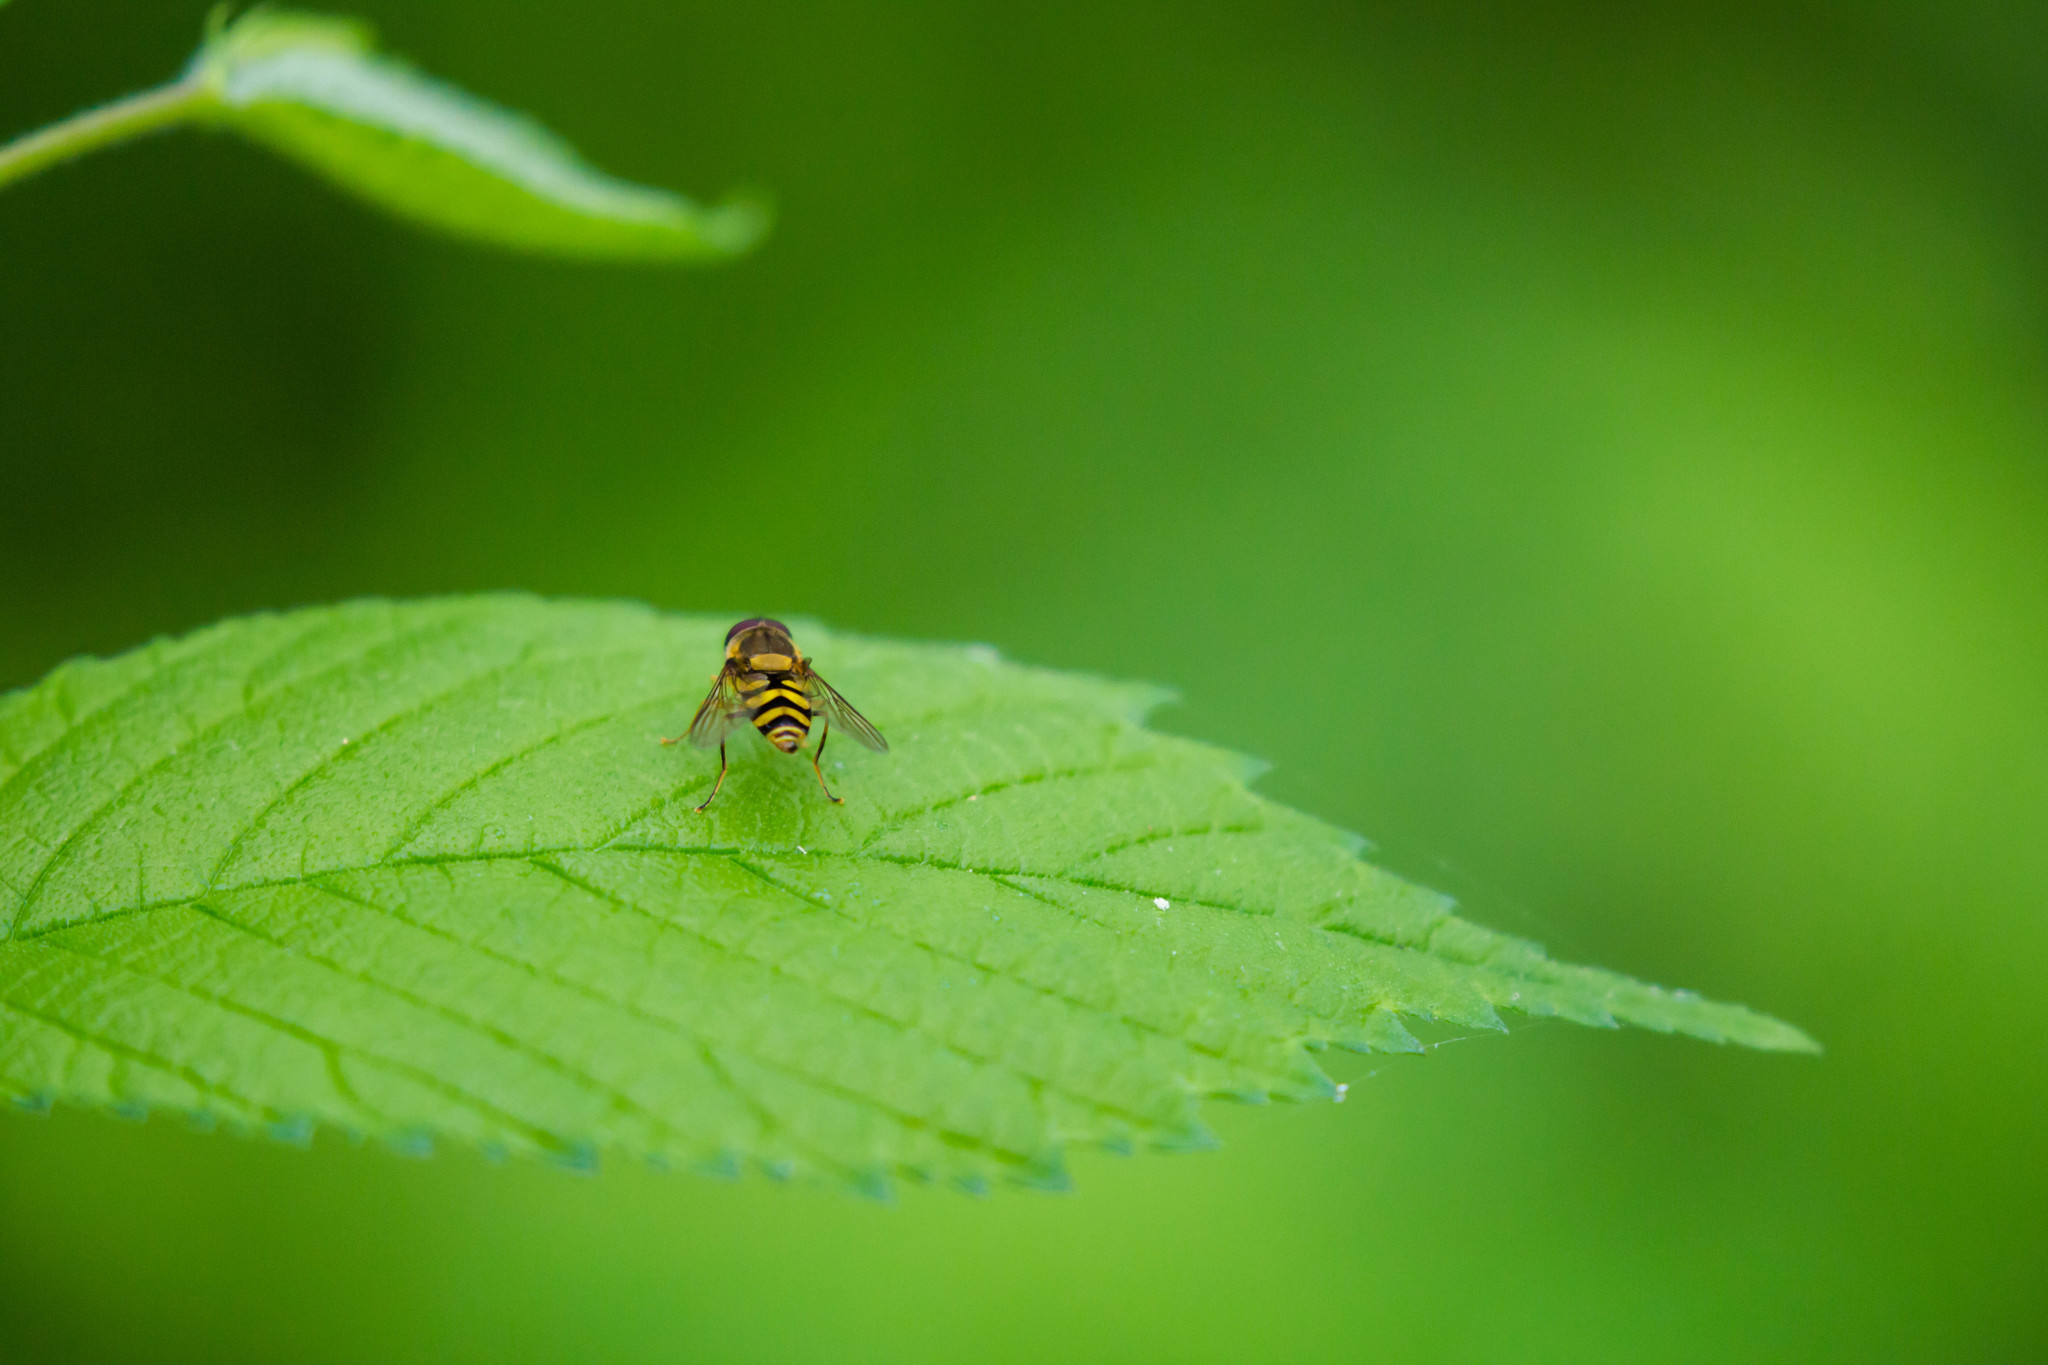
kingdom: Animalia
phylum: Arthropoda
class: Insecta
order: Diptera
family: Syrphidae
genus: Syrphus
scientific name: Syrphus
